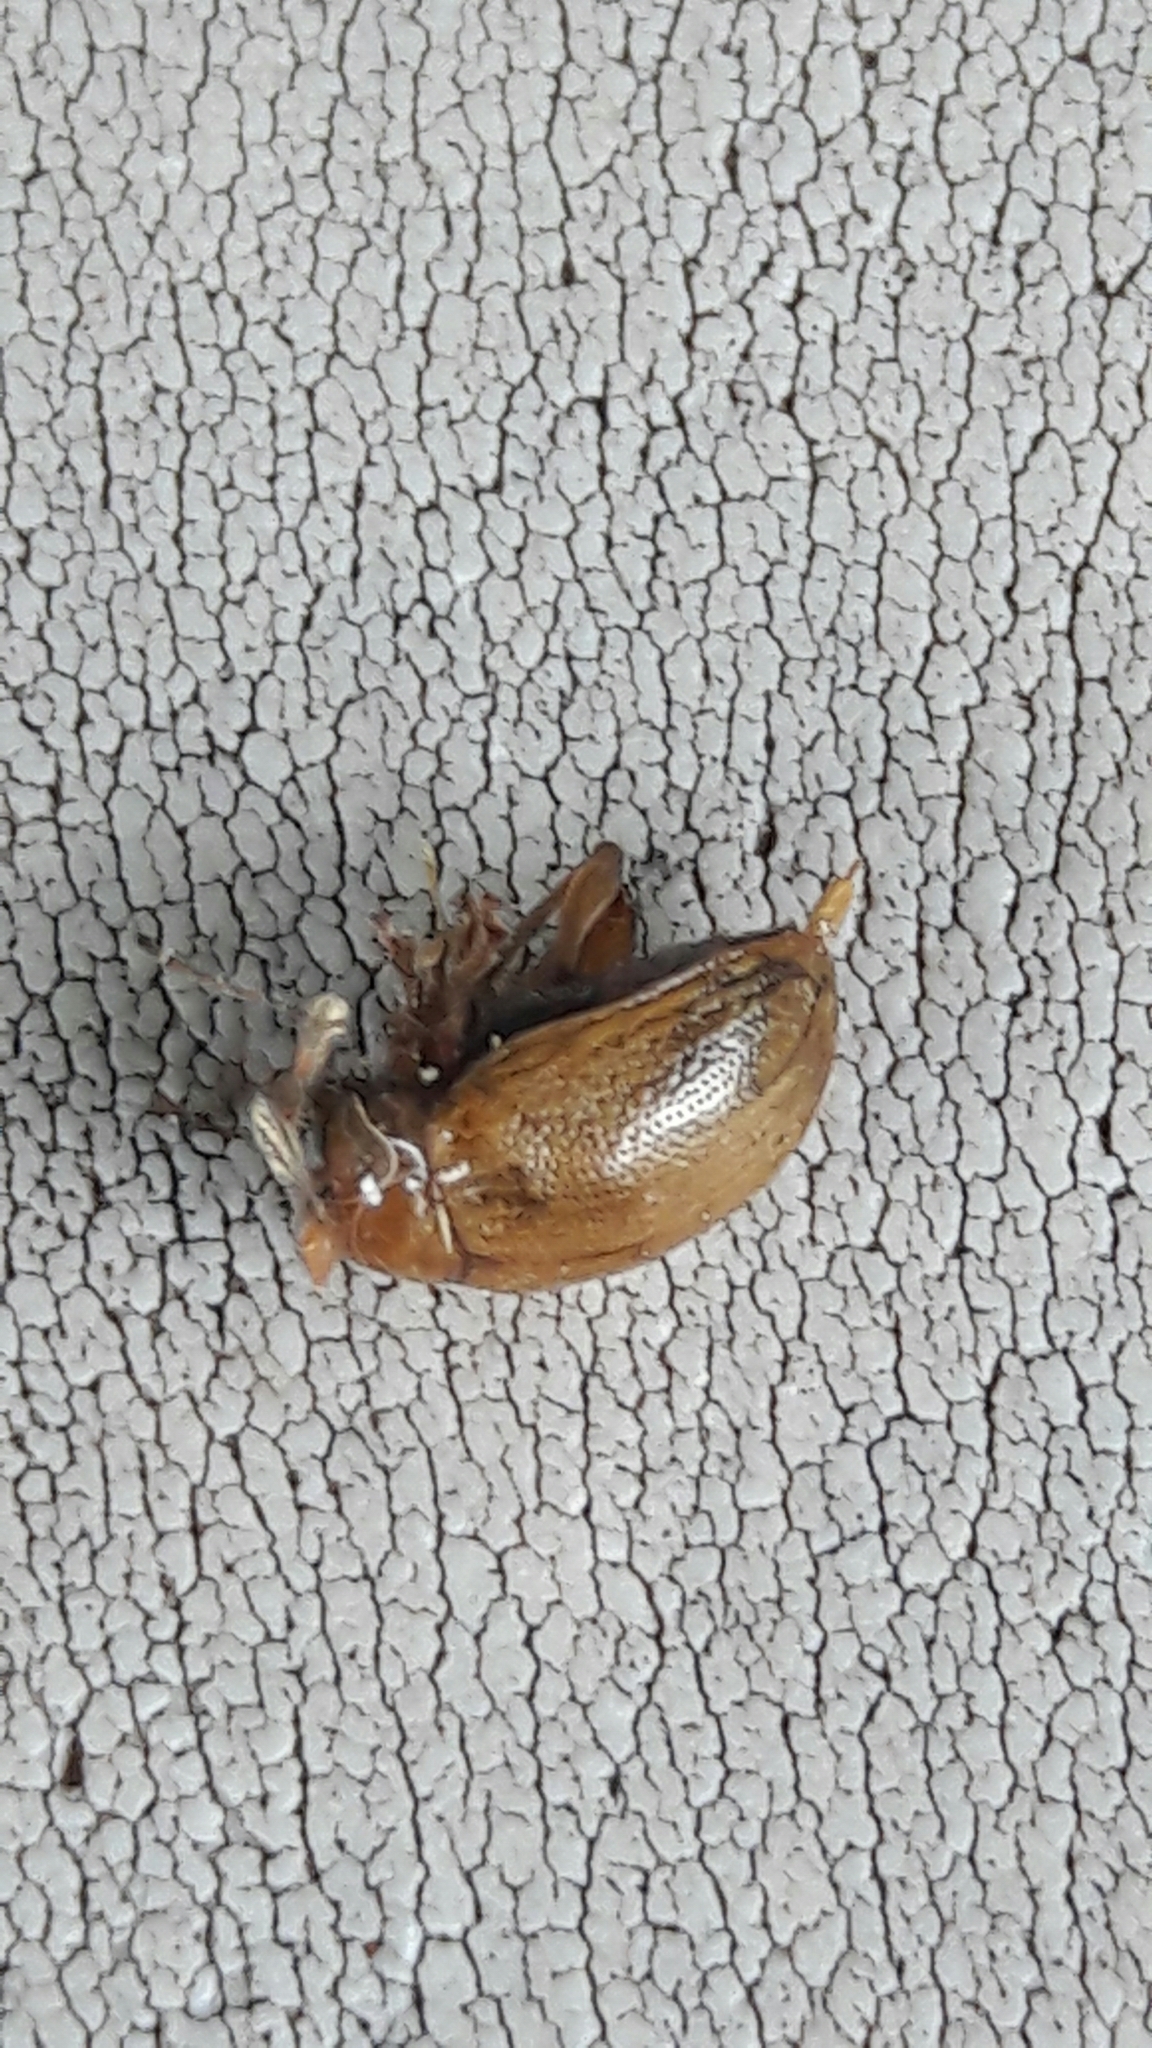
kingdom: Animalia
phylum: Arthropoda
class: Insecta
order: Coleoptera
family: Chrysomelidae
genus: Anisodera
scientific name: Anisodera ferruginea
